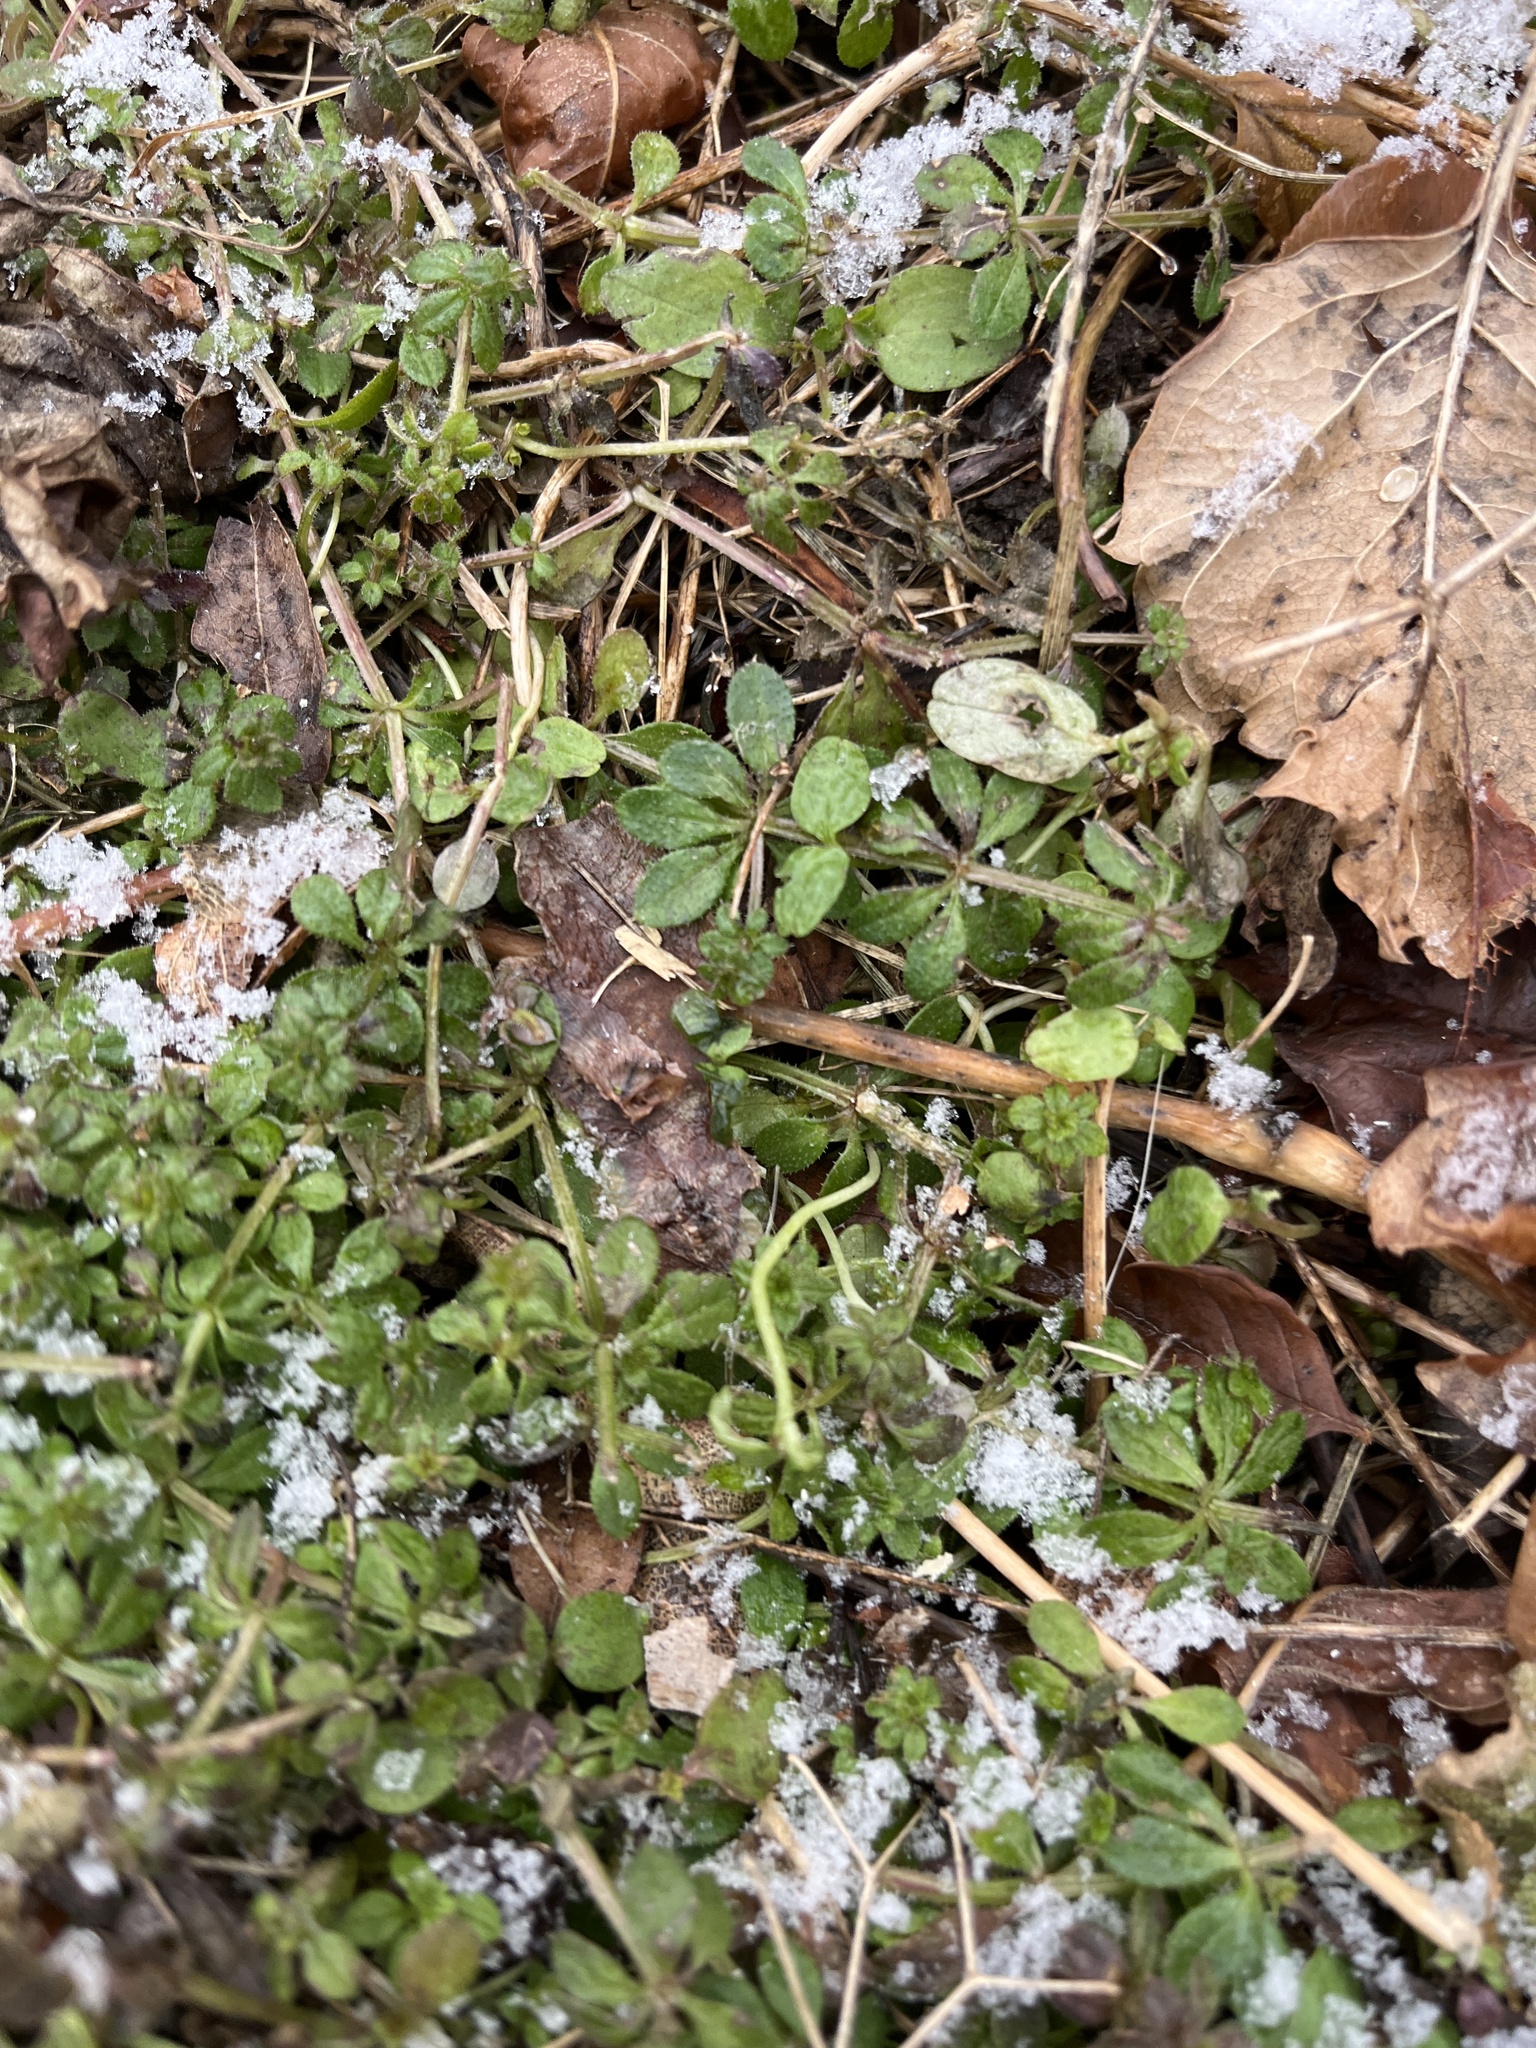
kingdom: Plantae
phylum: Tracheophyta
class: Magnoliopsida
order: Gentianales
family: Rubiaceae
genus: Galium
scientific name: Galium aparine
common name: Cleavers
